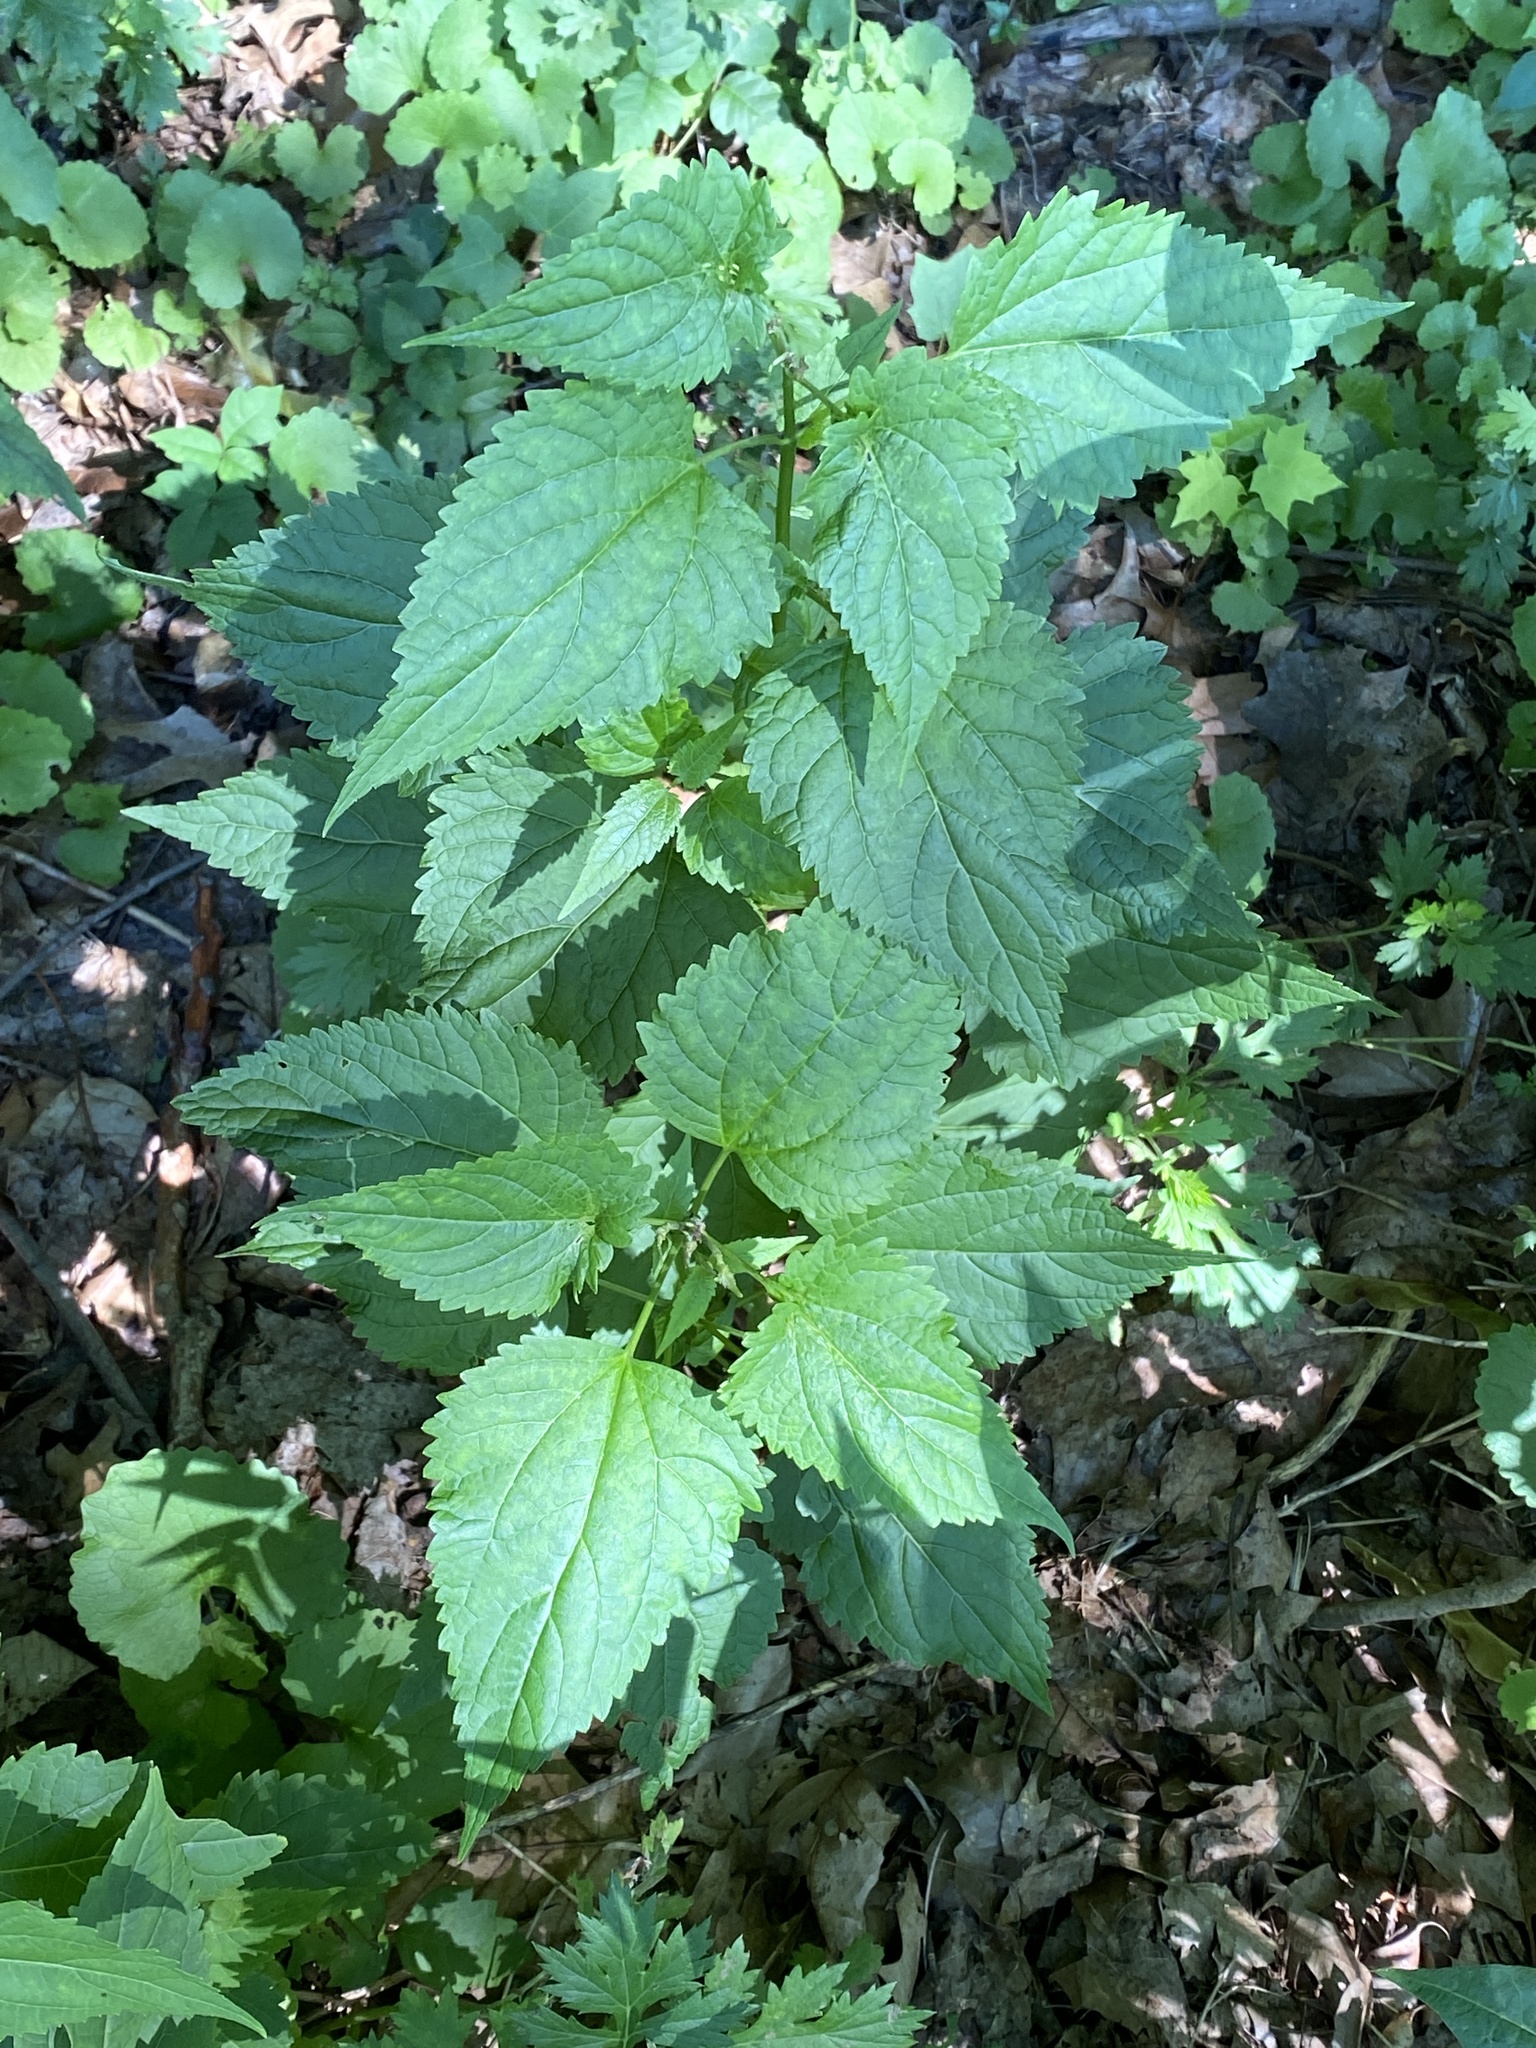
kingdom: Plantae
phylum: Tracheophyta
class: Magnoliopsida
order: Asterales
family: Asteraceae
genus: Ageratina
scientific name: Ageratina altissima
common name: White snakeroot
